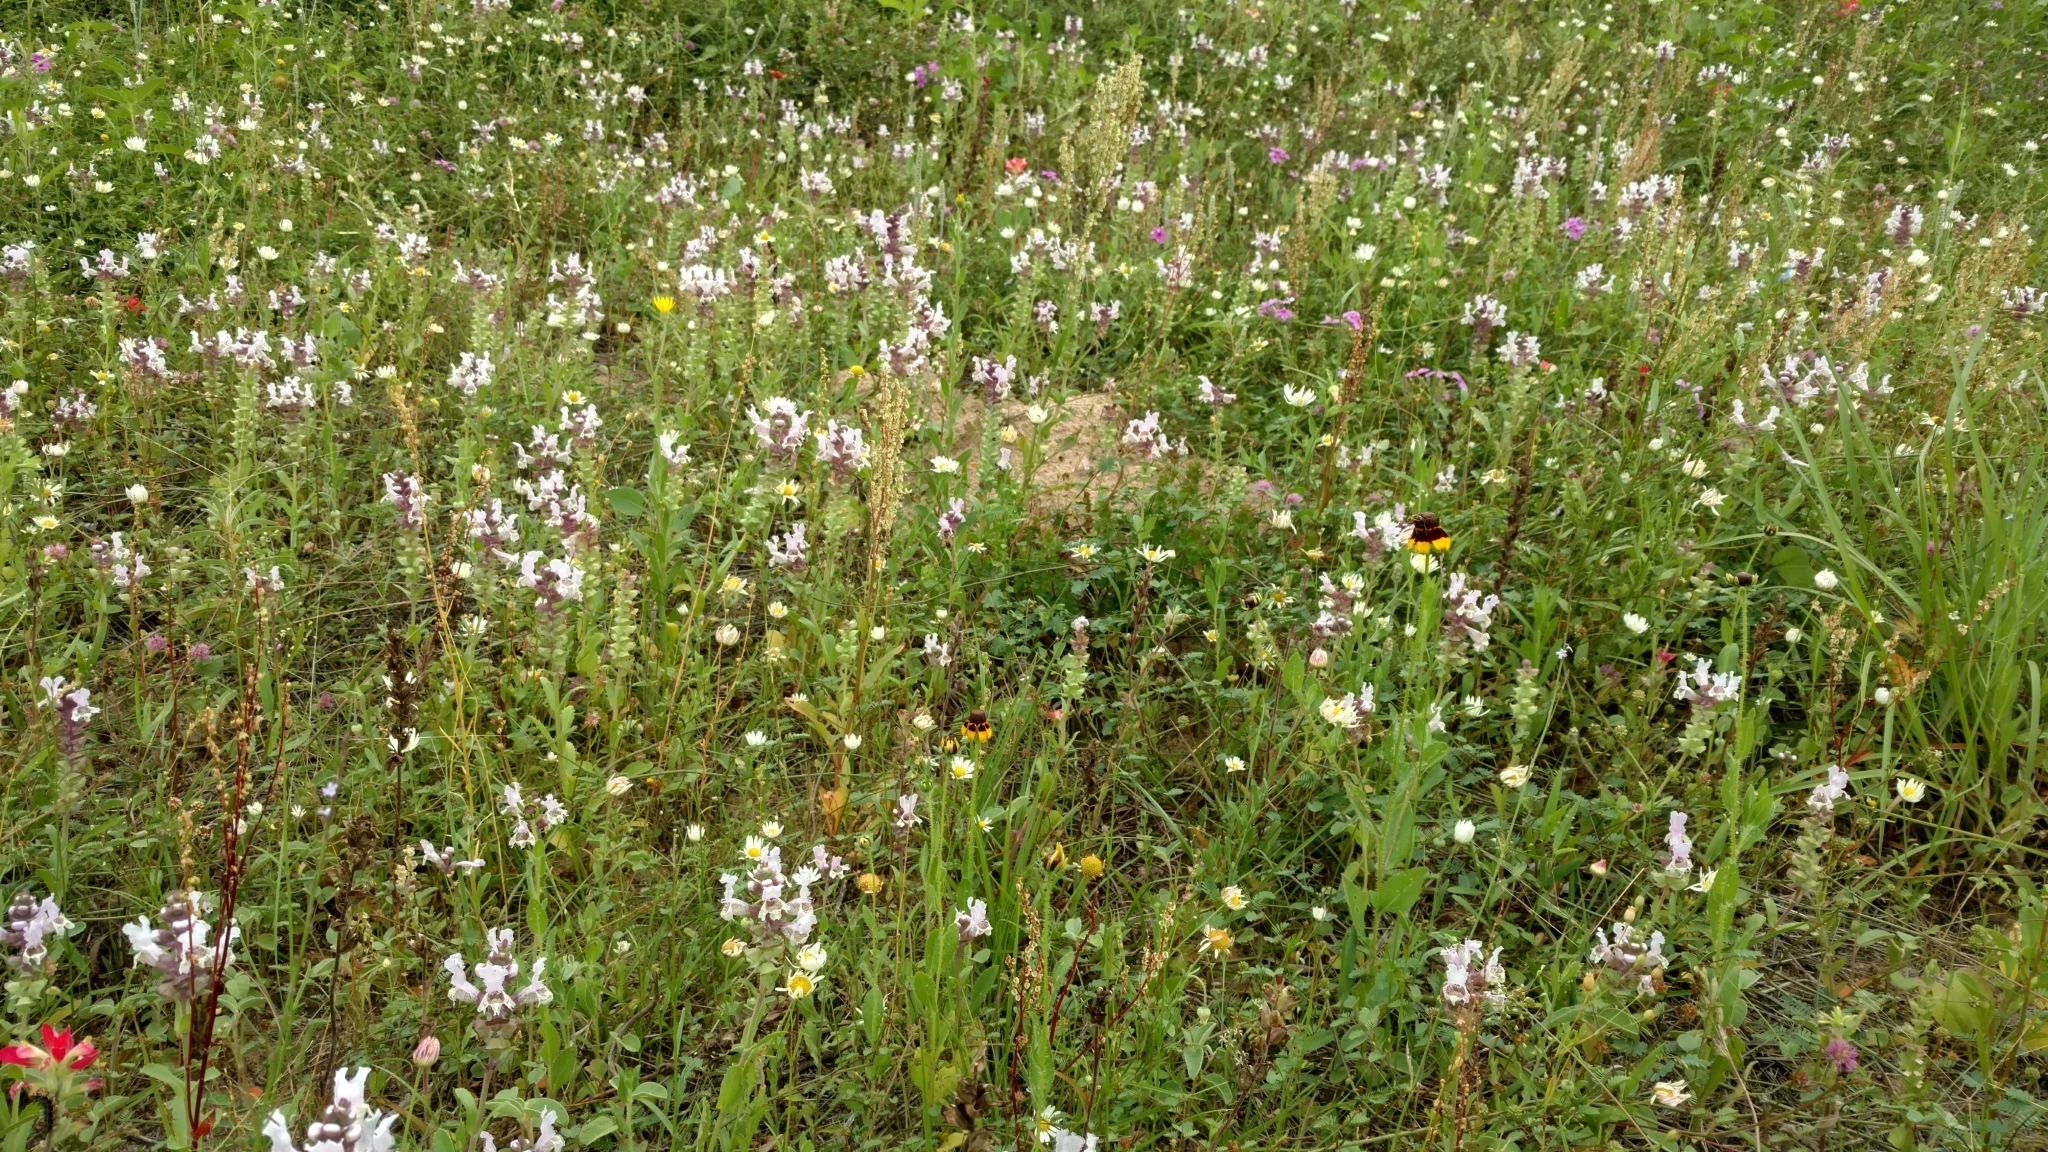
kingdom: Plantae
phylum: Tracheophyta
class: Magnoliopsida
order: Lamiales
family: Lamiaceae
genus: Brazoria
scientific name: Brazoria truncata
